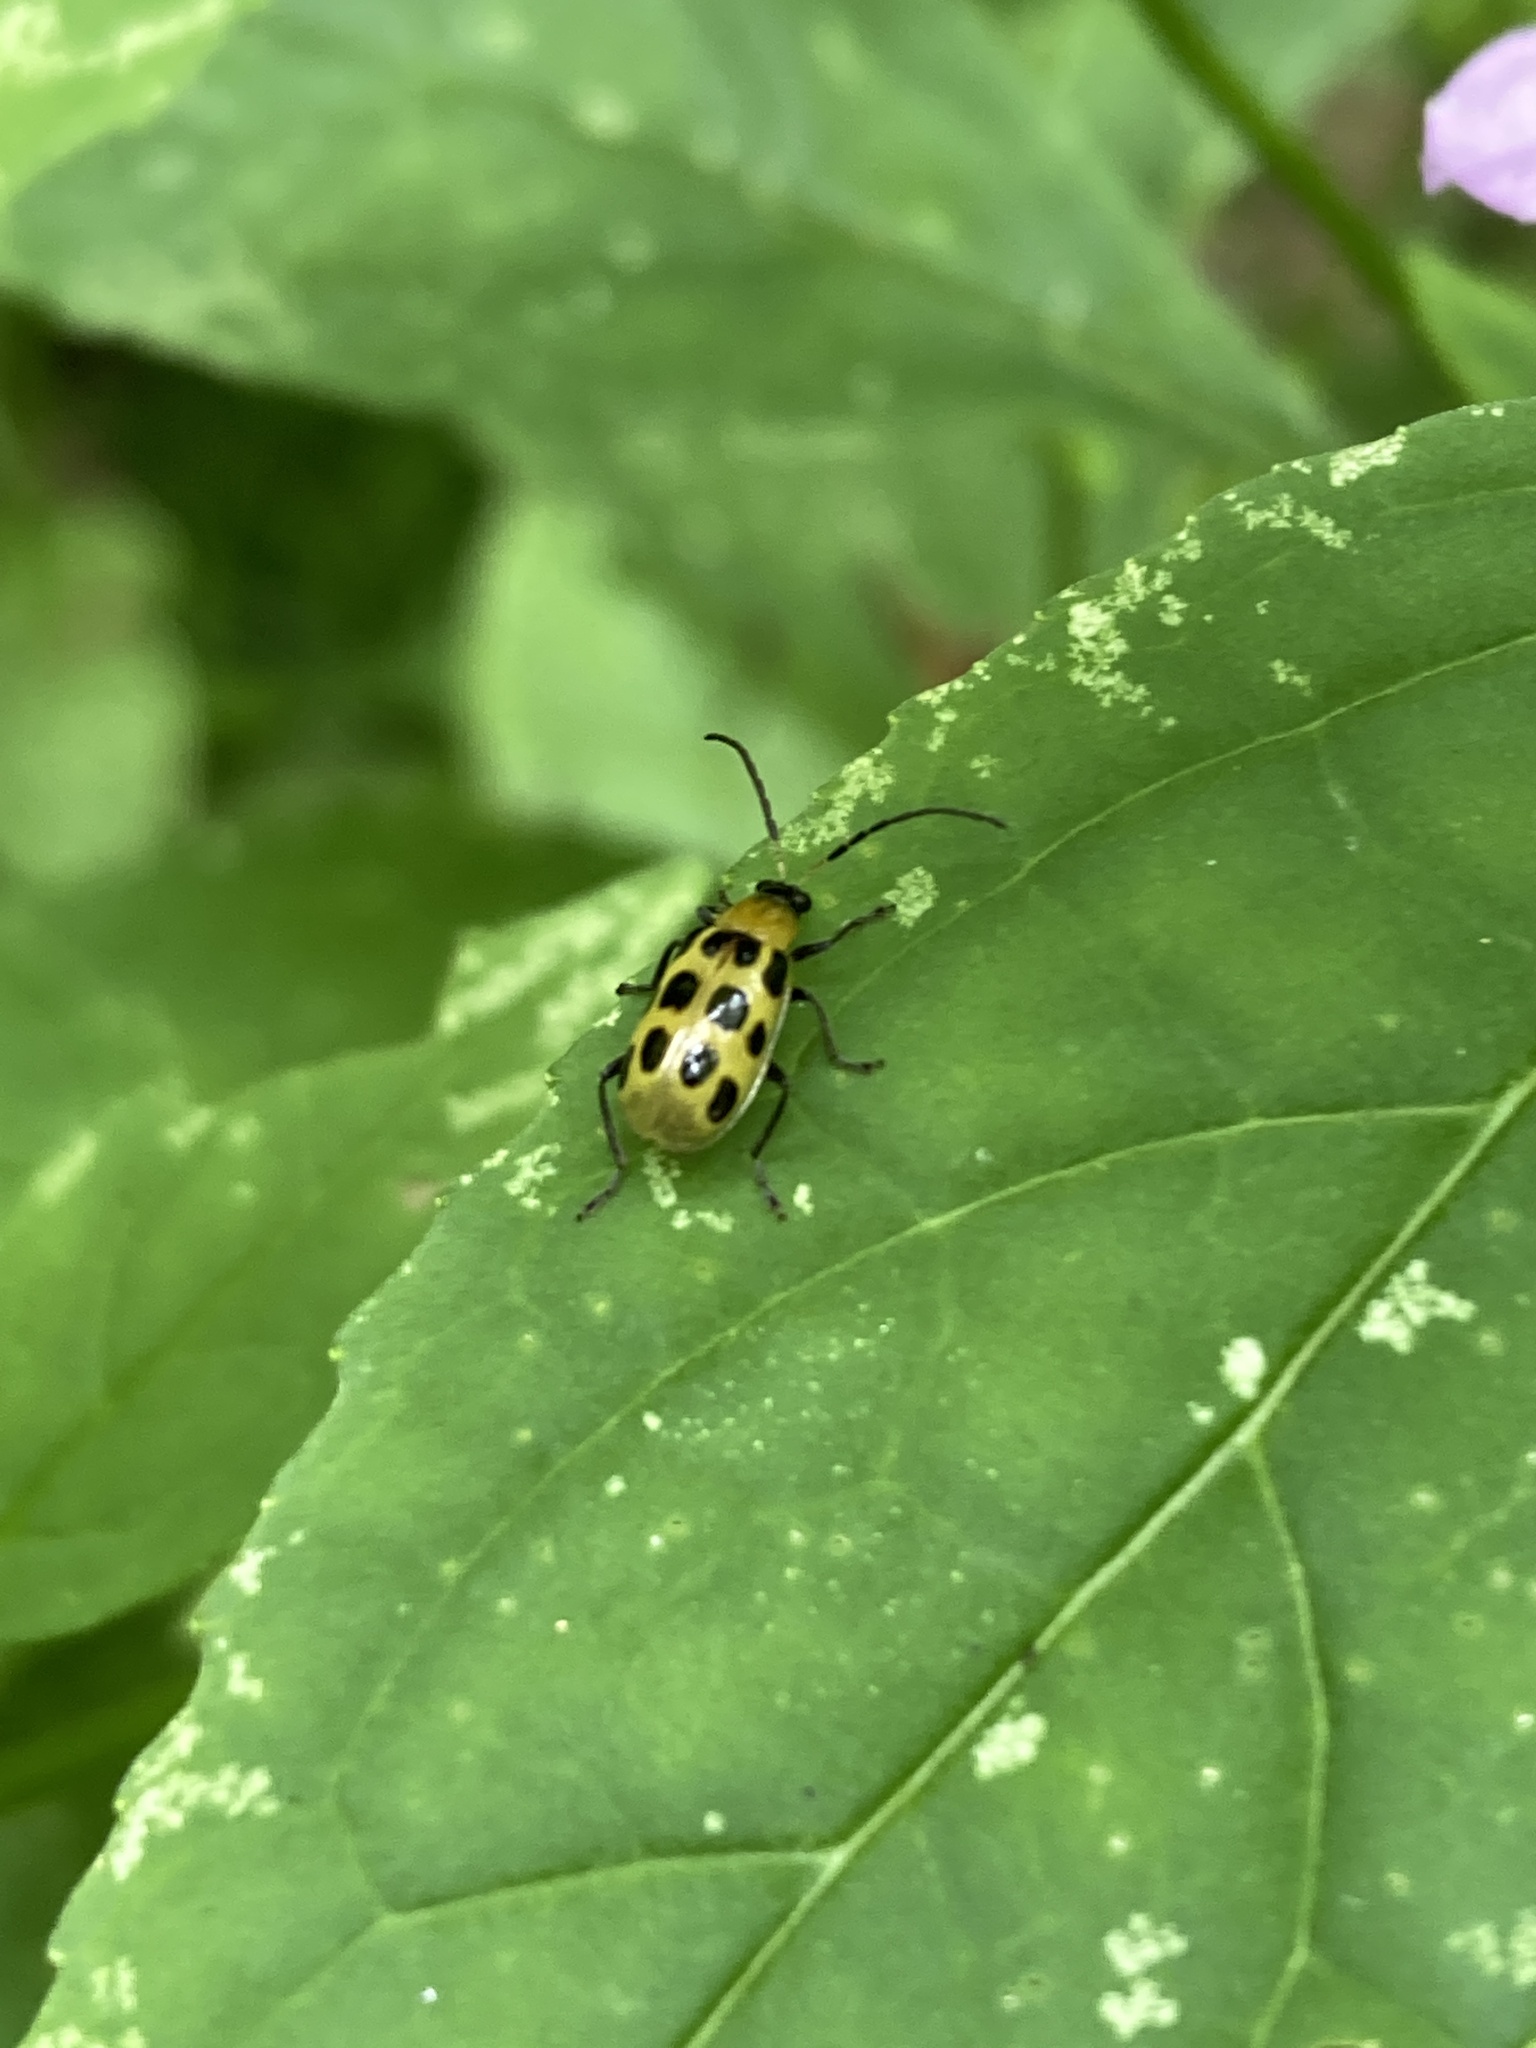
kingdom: Animalia
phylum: Arthropoda
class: Insecta
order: Coleoptera
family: Chrysomelidae
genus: Diabrotica
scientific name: Diabrotica undecimpunctata
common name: Spotted cucumber beetle
